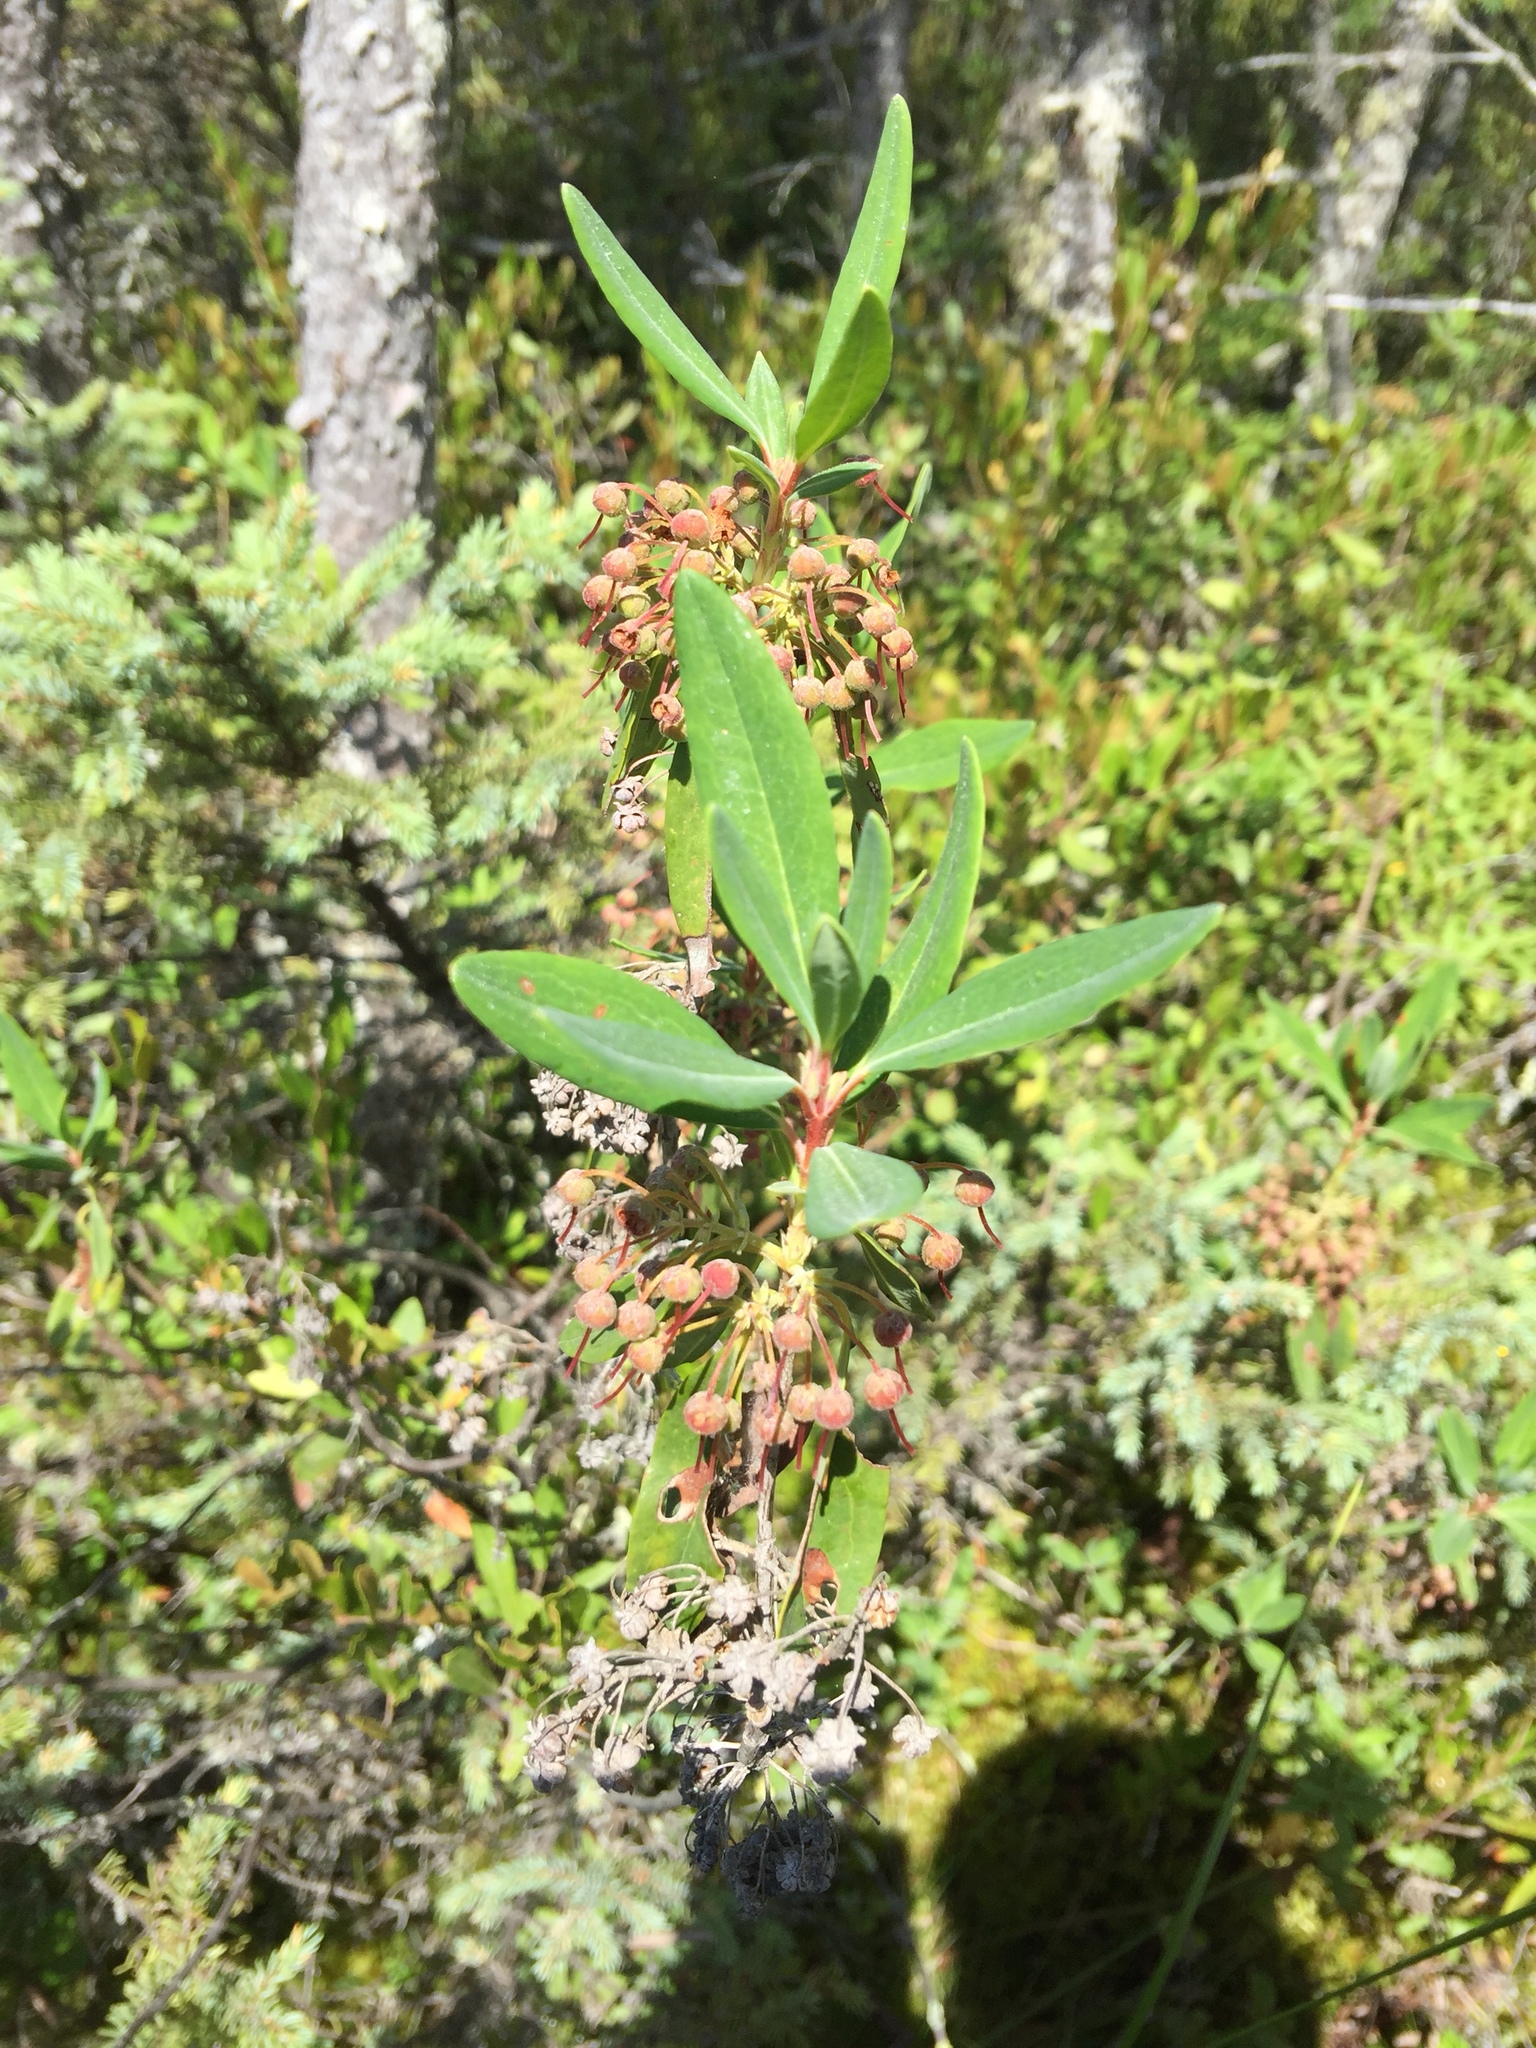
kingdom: Plantae
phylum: Tracheophyta
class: Magnoliopsida
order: Ericales
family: Ericaceae
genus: Kalmia
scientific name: Kalmia angustifolia
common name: Sheep-laurel
